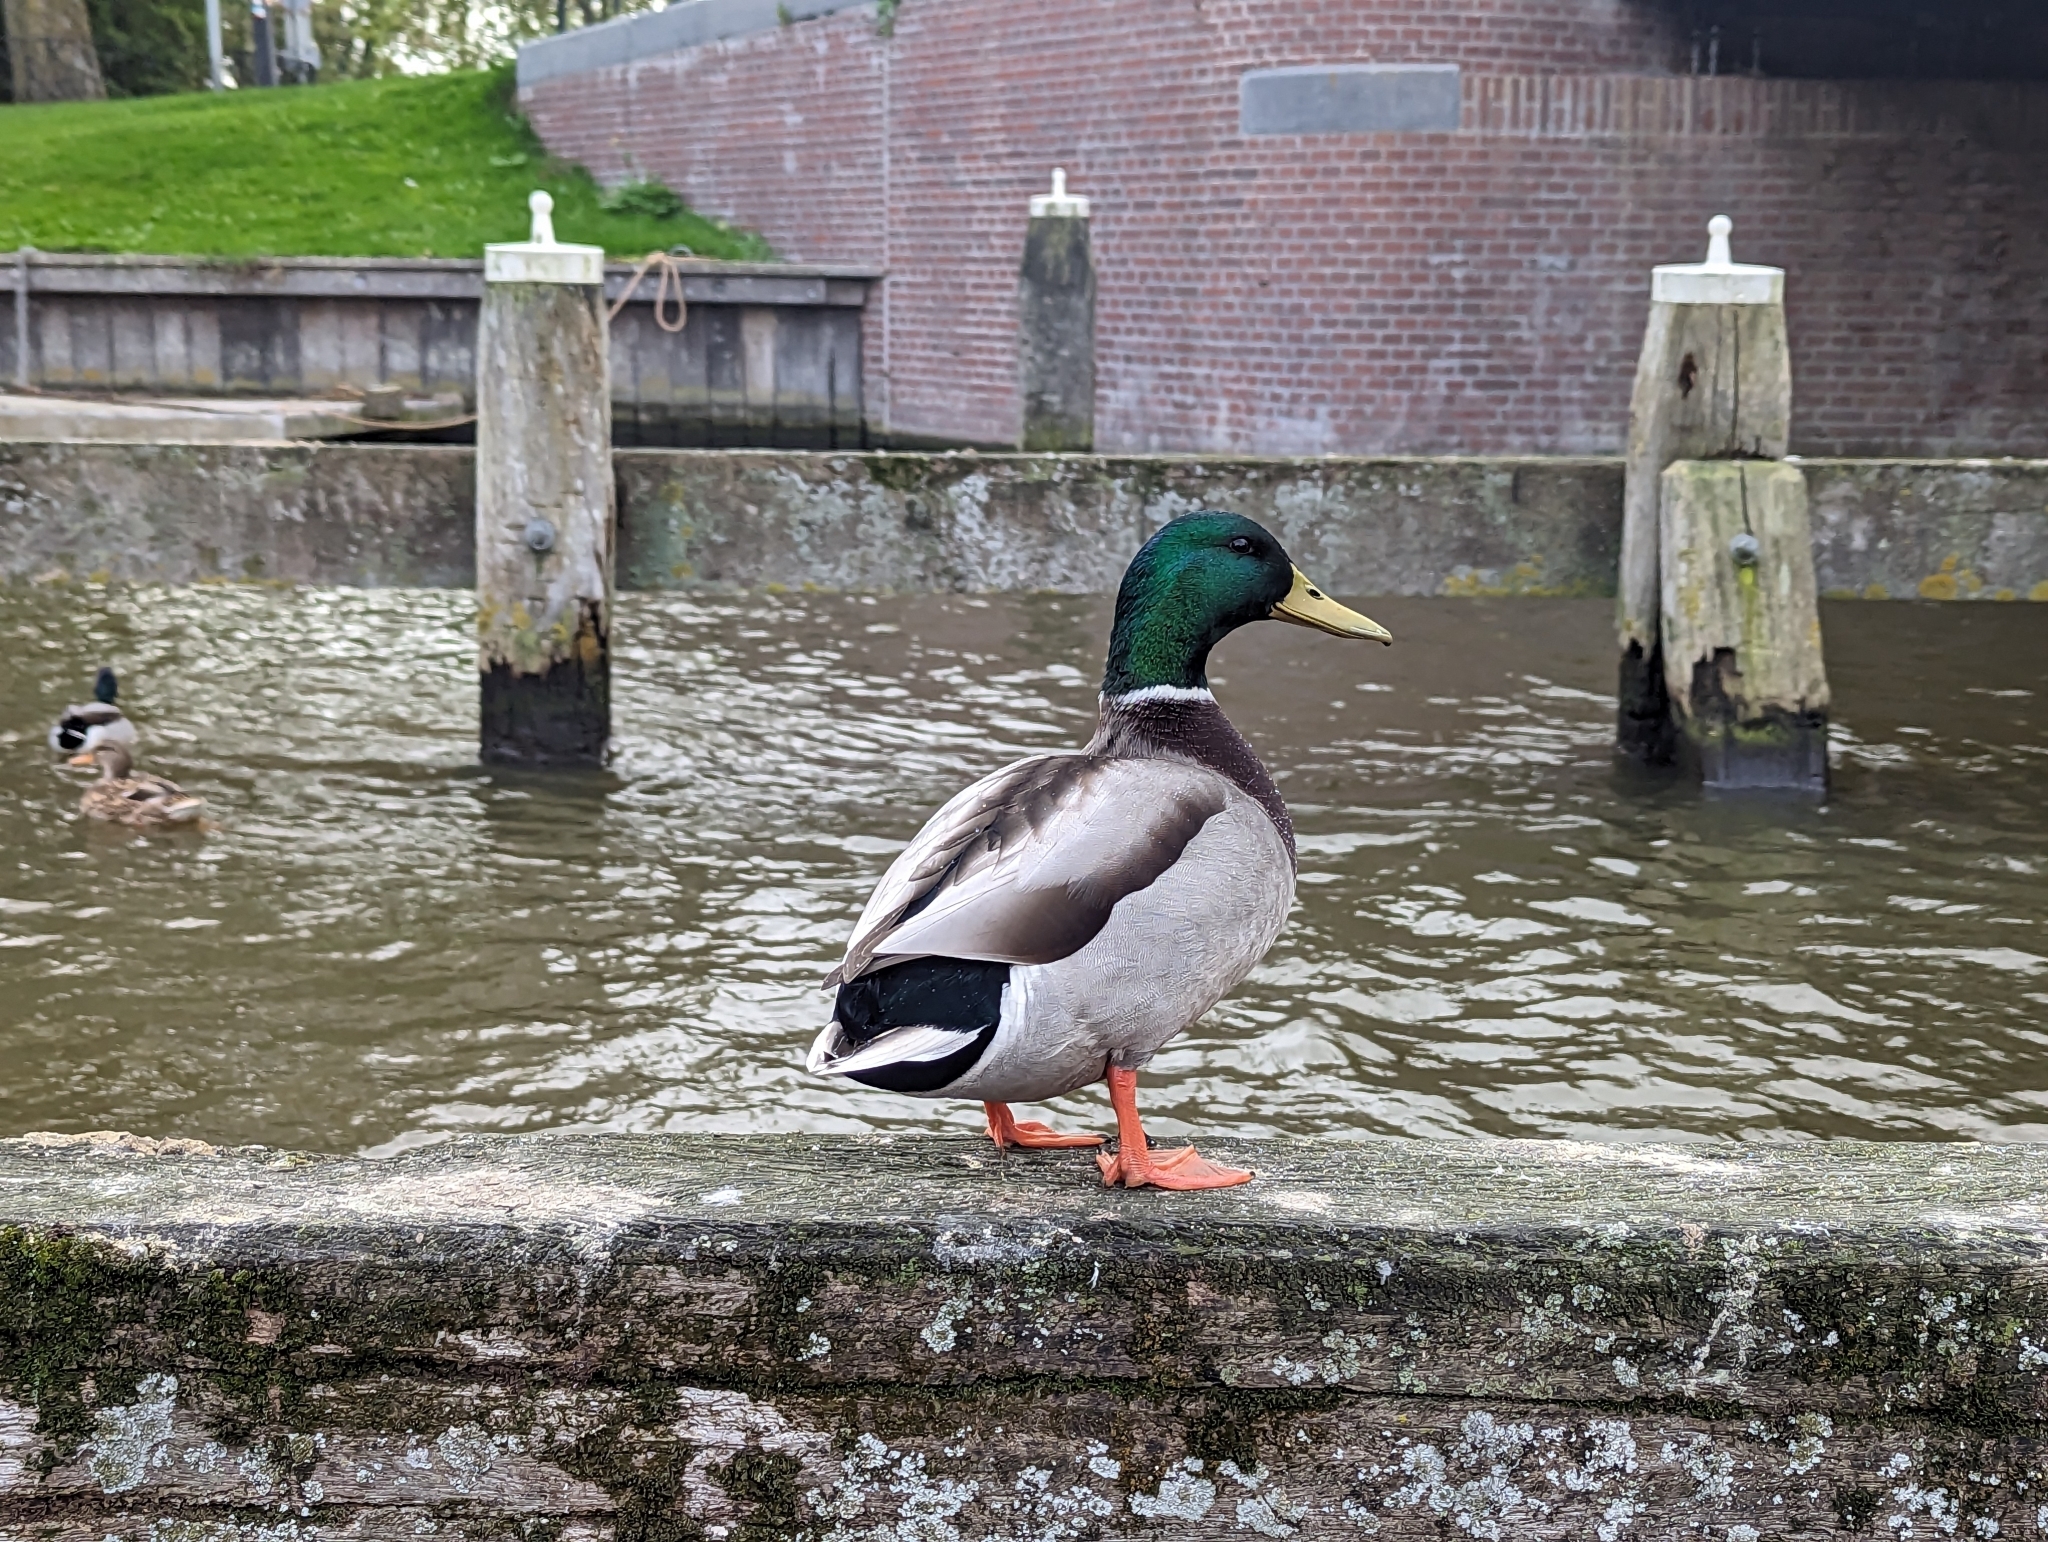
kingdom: Animalia
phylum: Chordata
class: Aves
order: Anseriformes
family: Anatidae
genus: Anas
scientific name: Anas platyrhynchos
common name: Mallard
